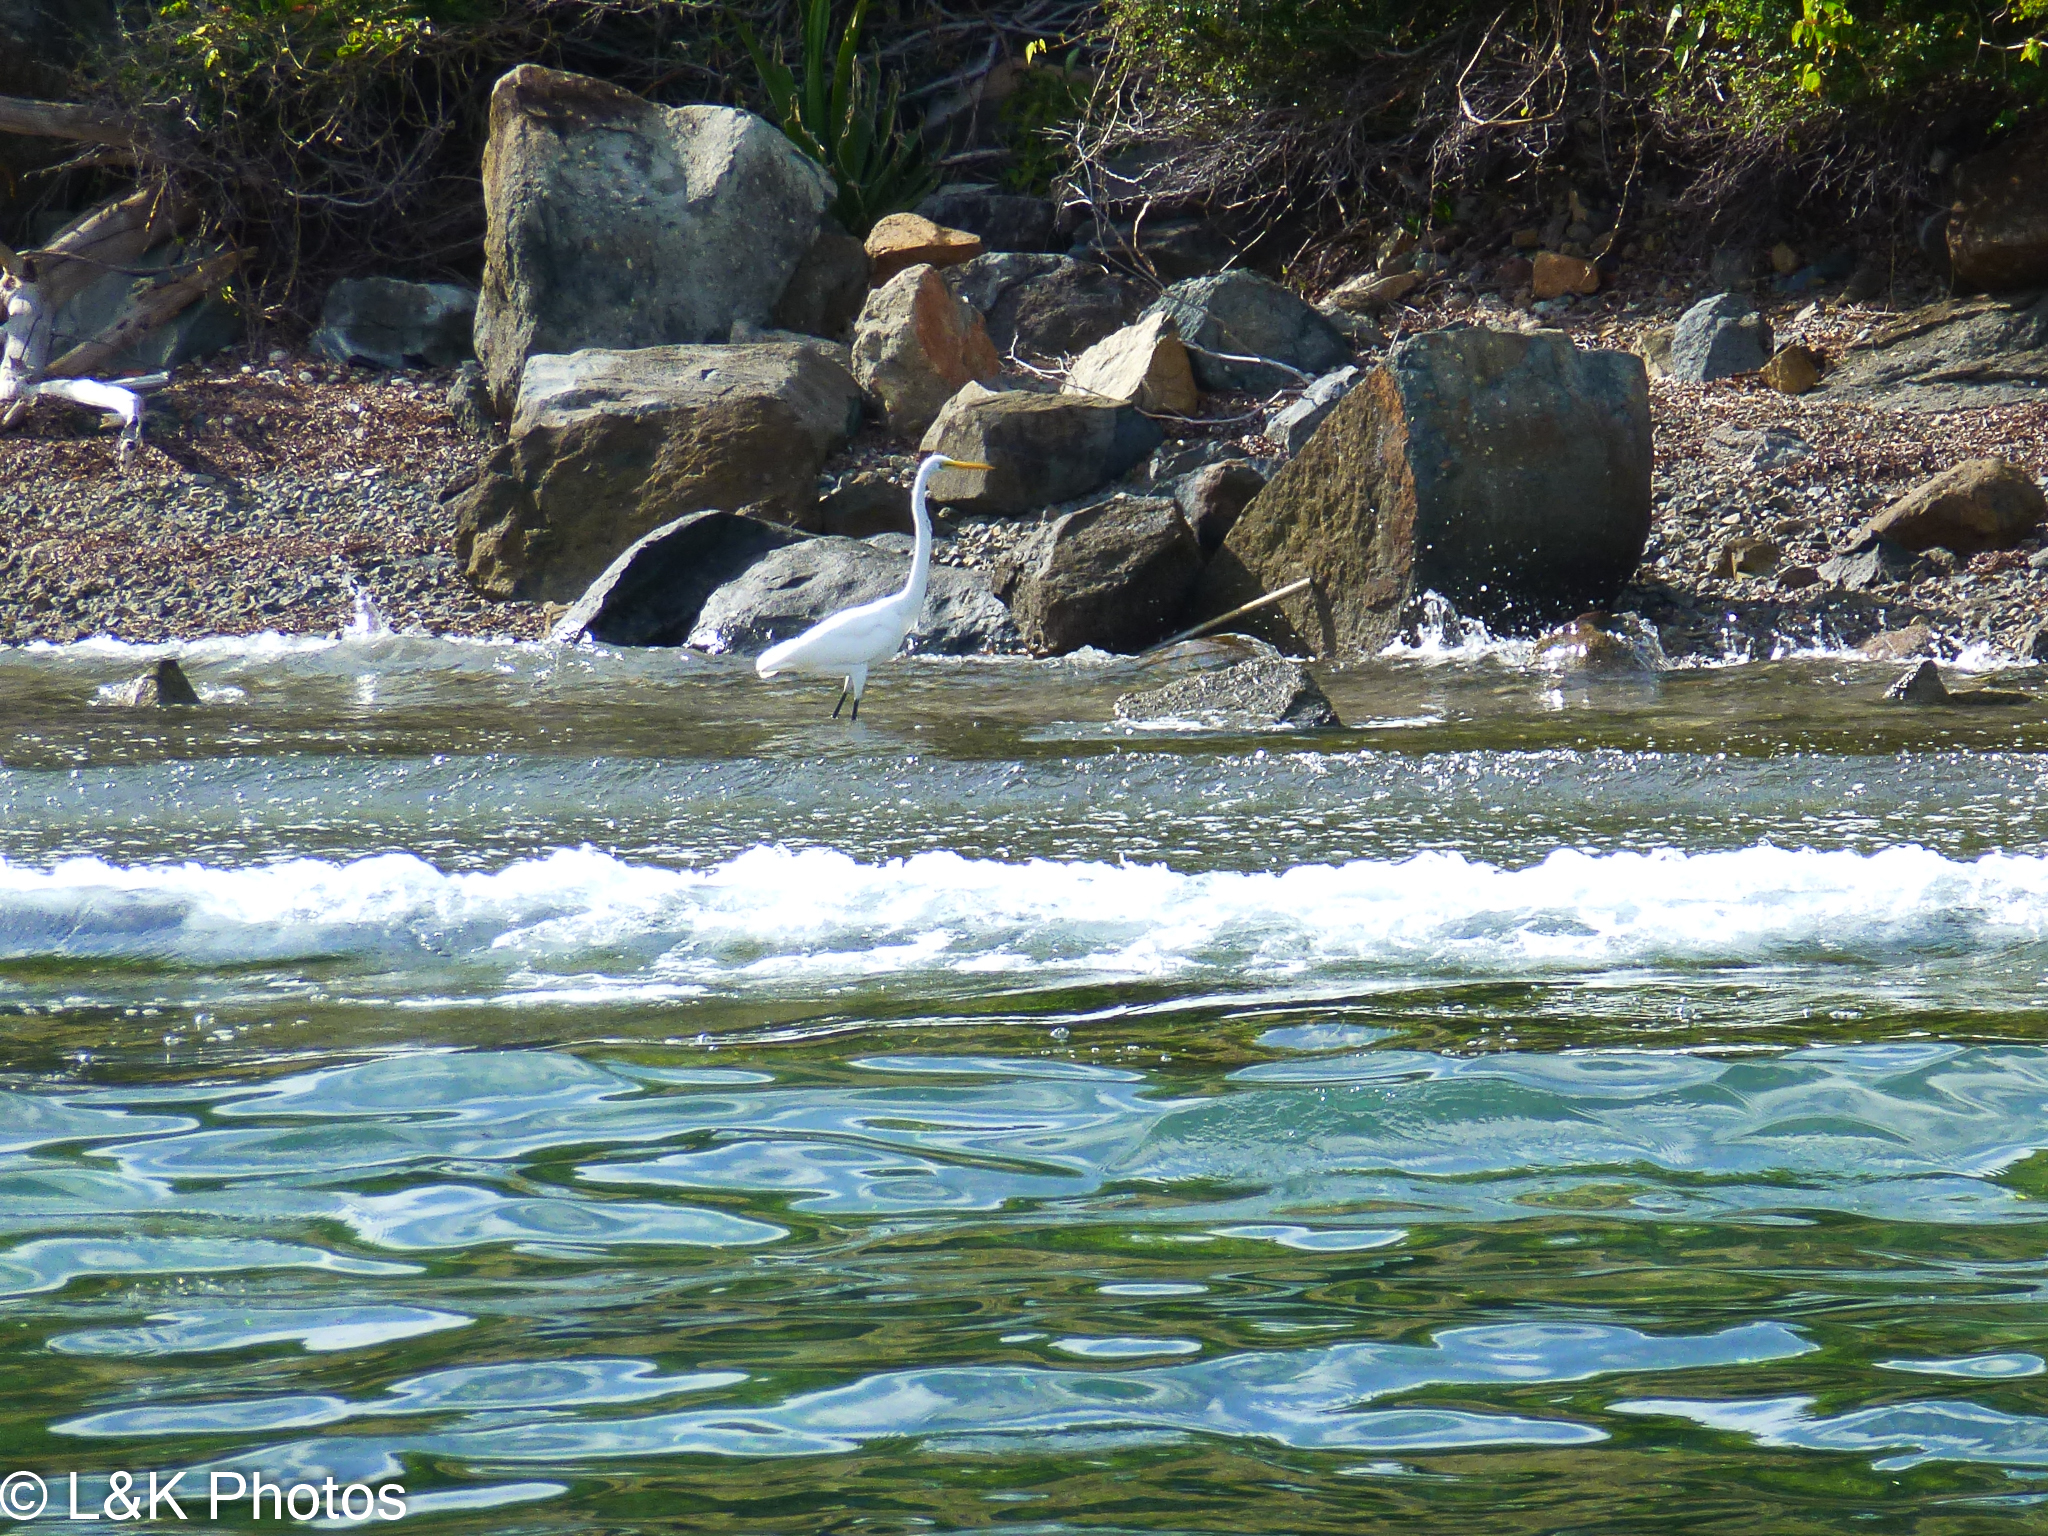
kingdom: Animalia
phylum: Chordata
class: Aves
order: Pelecaniformes
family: Ardeidae
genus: Ardea
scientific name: Ardea alba
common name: Great egret
